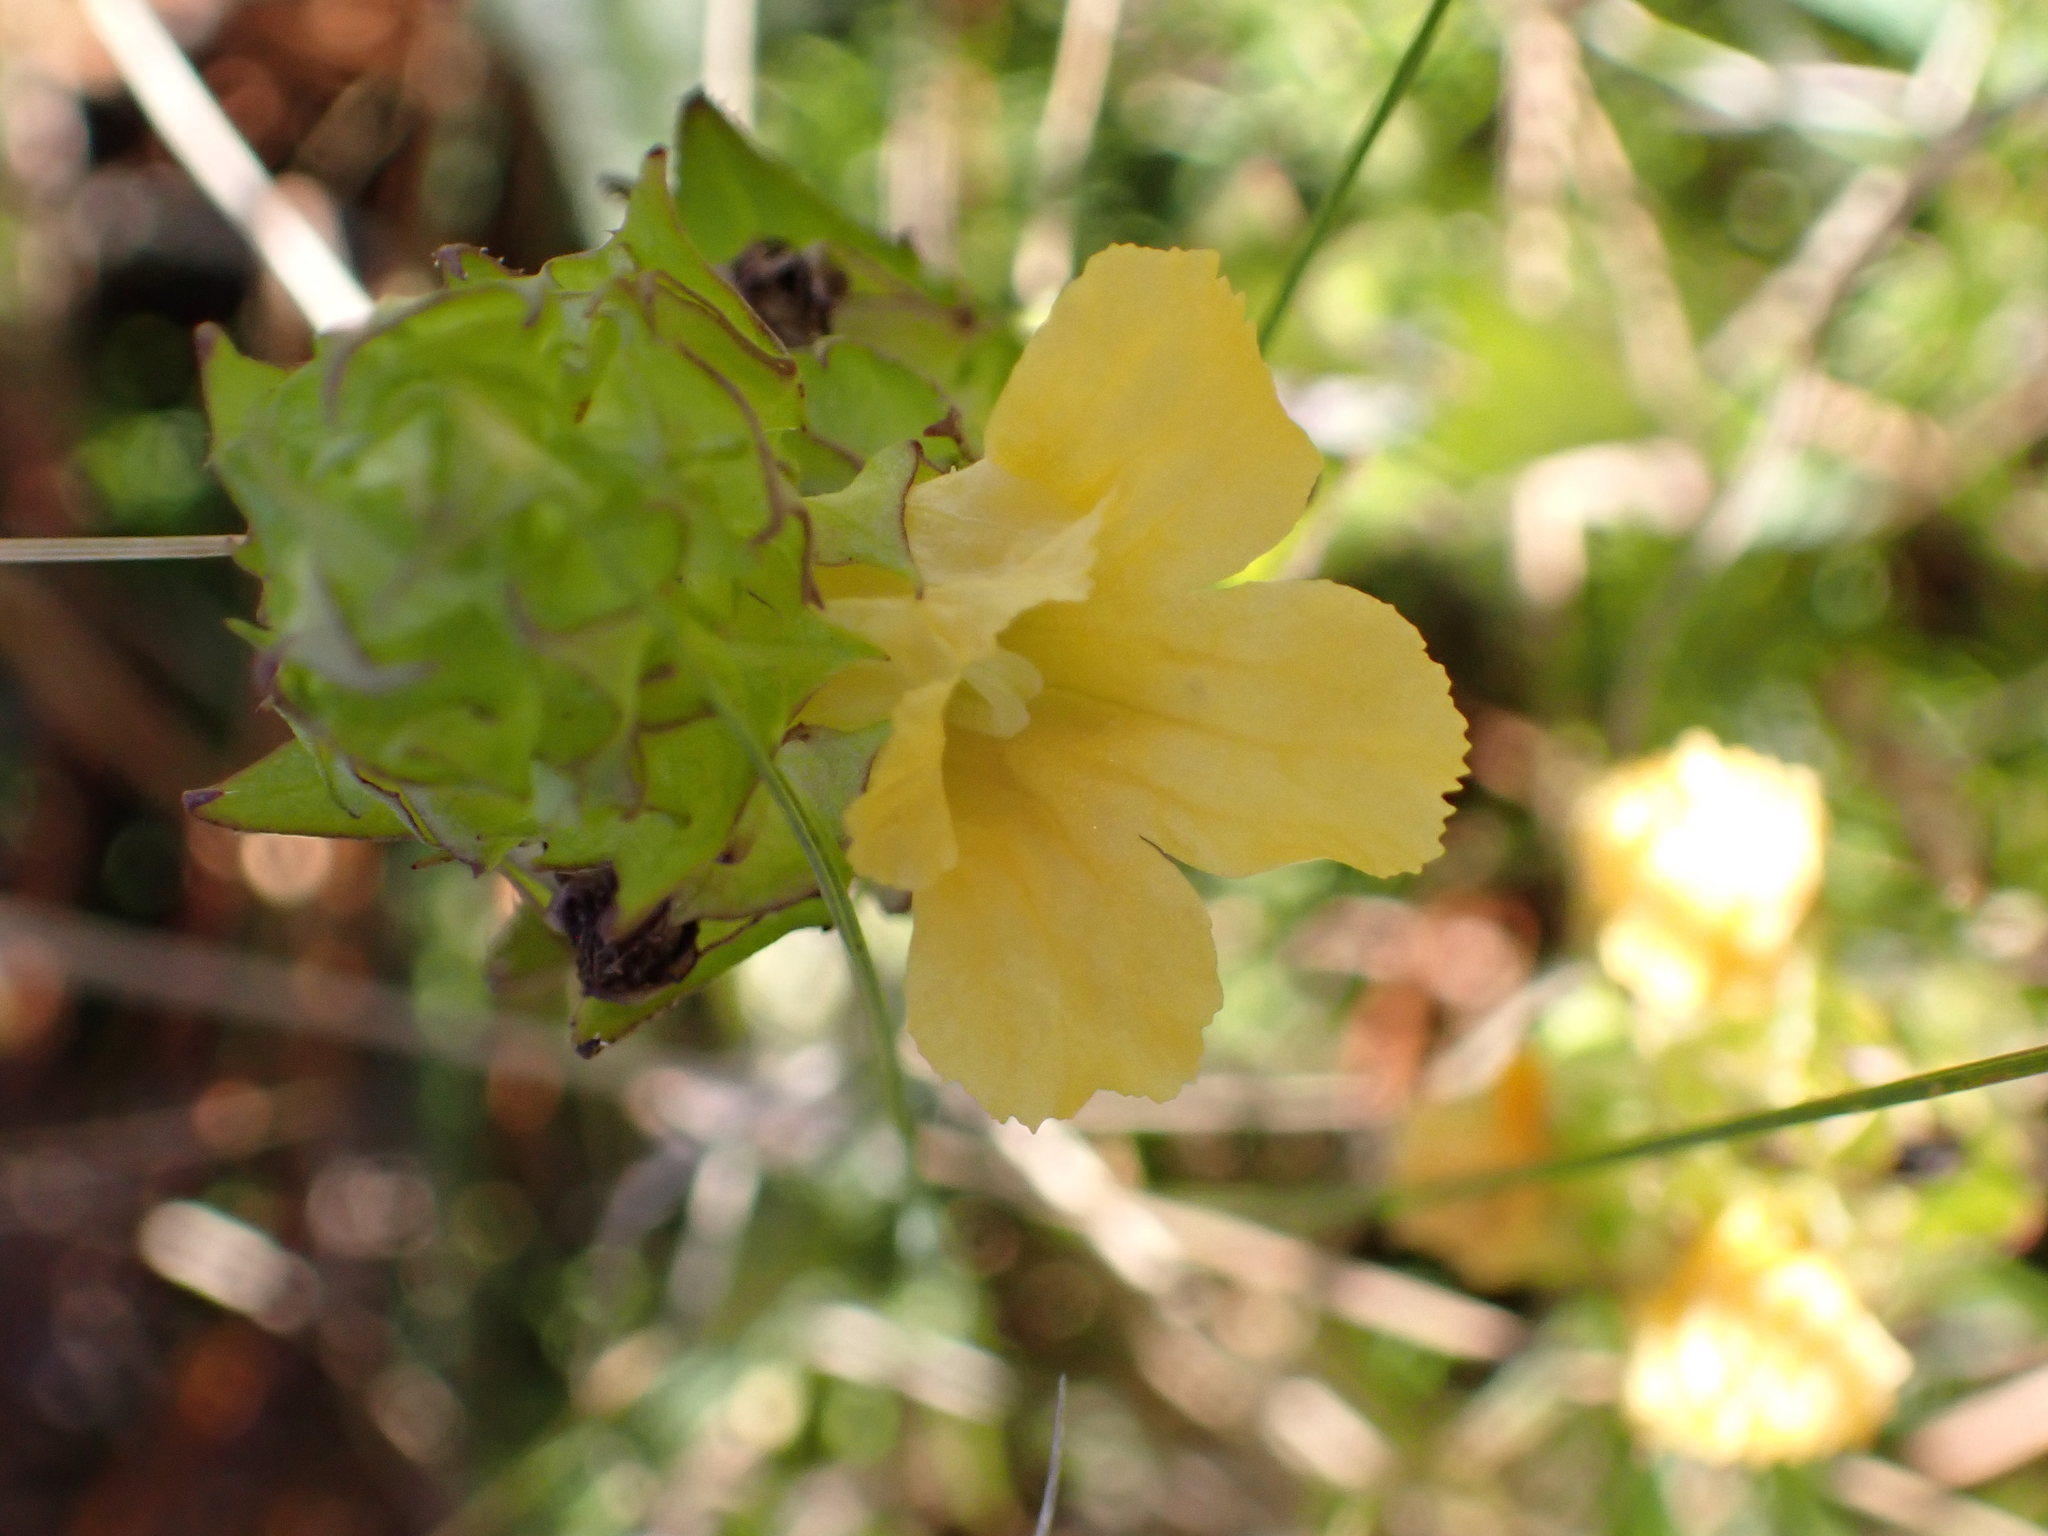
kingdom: Plantae
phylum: Tracheophyta
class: Magnoliopsida
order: Lamiales
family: Orobanchaceae
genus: Alectra
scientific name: Alectra sessiliflora
